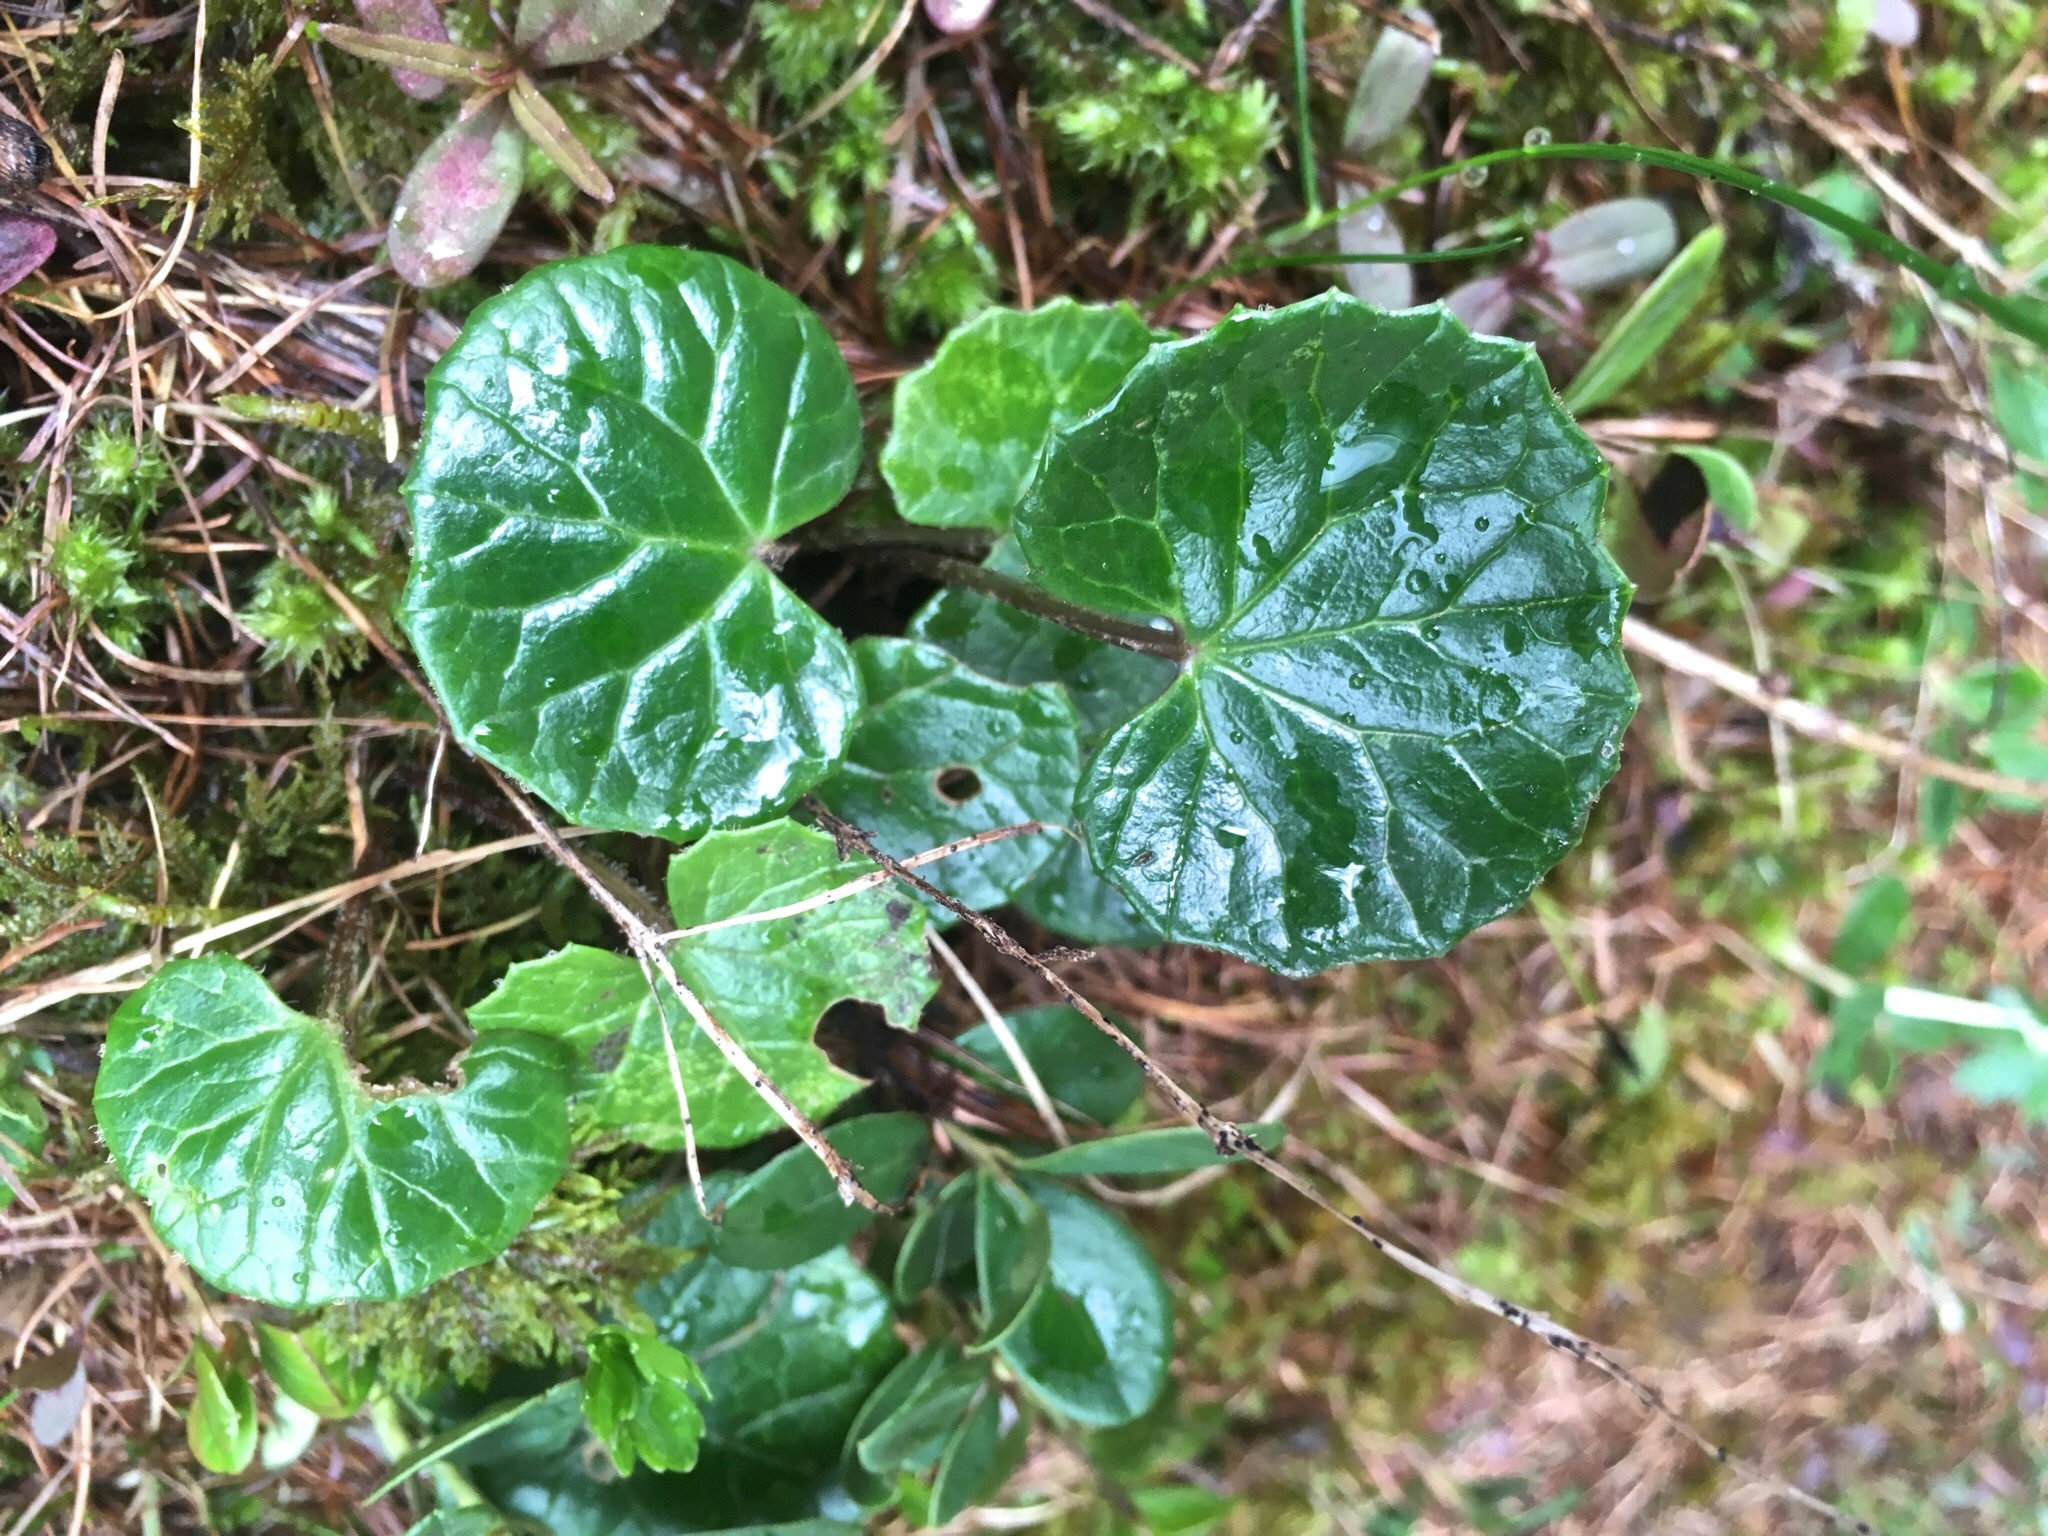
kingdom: Plantae
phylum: Tracheophyta
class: Magnoliopsida
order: Asterales
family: Asteraceae
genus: Homogyne
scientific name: Homogyne alpina
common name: Purple colt's-foot
